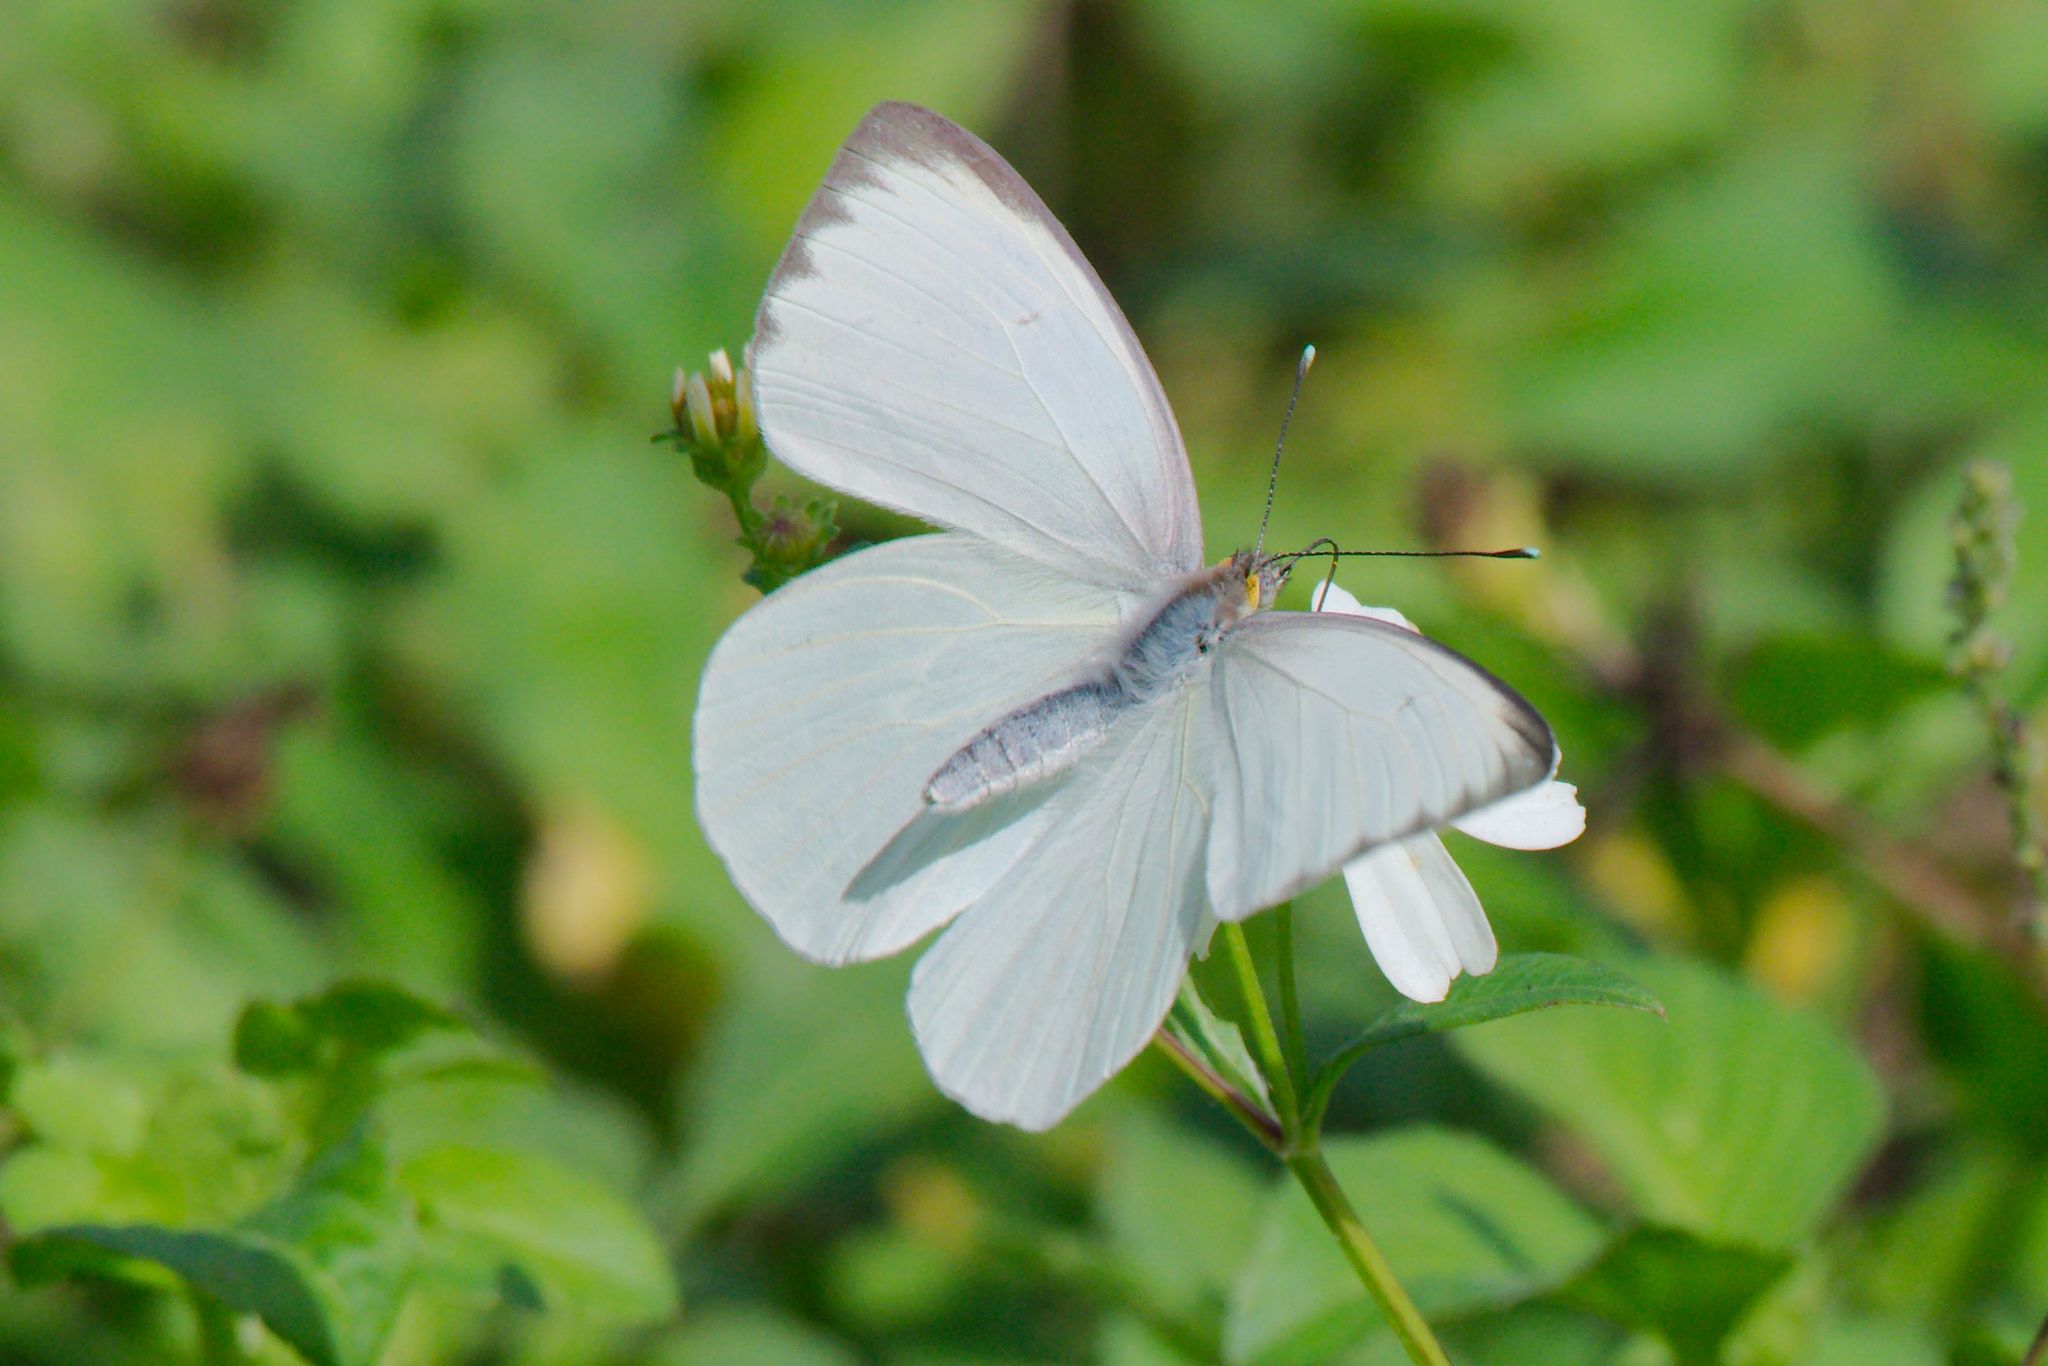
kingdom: Animalia
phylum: Arthropoda
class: Insecta
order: Lepidoptera
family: Pieridae
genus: Ascia
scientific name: Ascia monuste
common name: Great southern white
